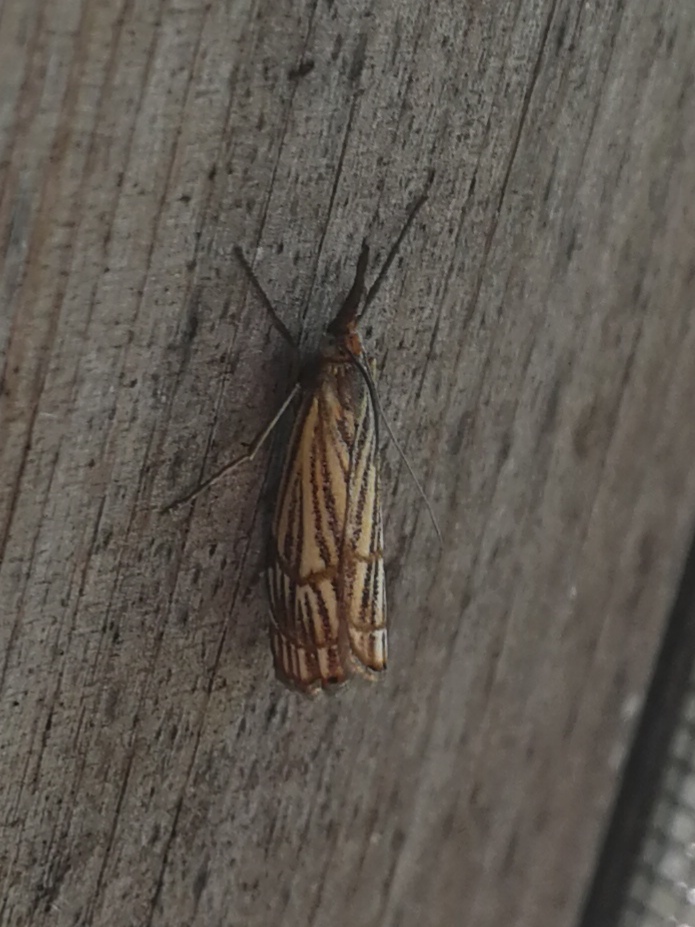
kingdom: Animalia
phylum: Arthropoda
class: Insecta
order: Lepidoptera
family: Crambidae
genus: Chrysocrambus
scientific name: Chrysocrambus Chrysocramboides craterellus
